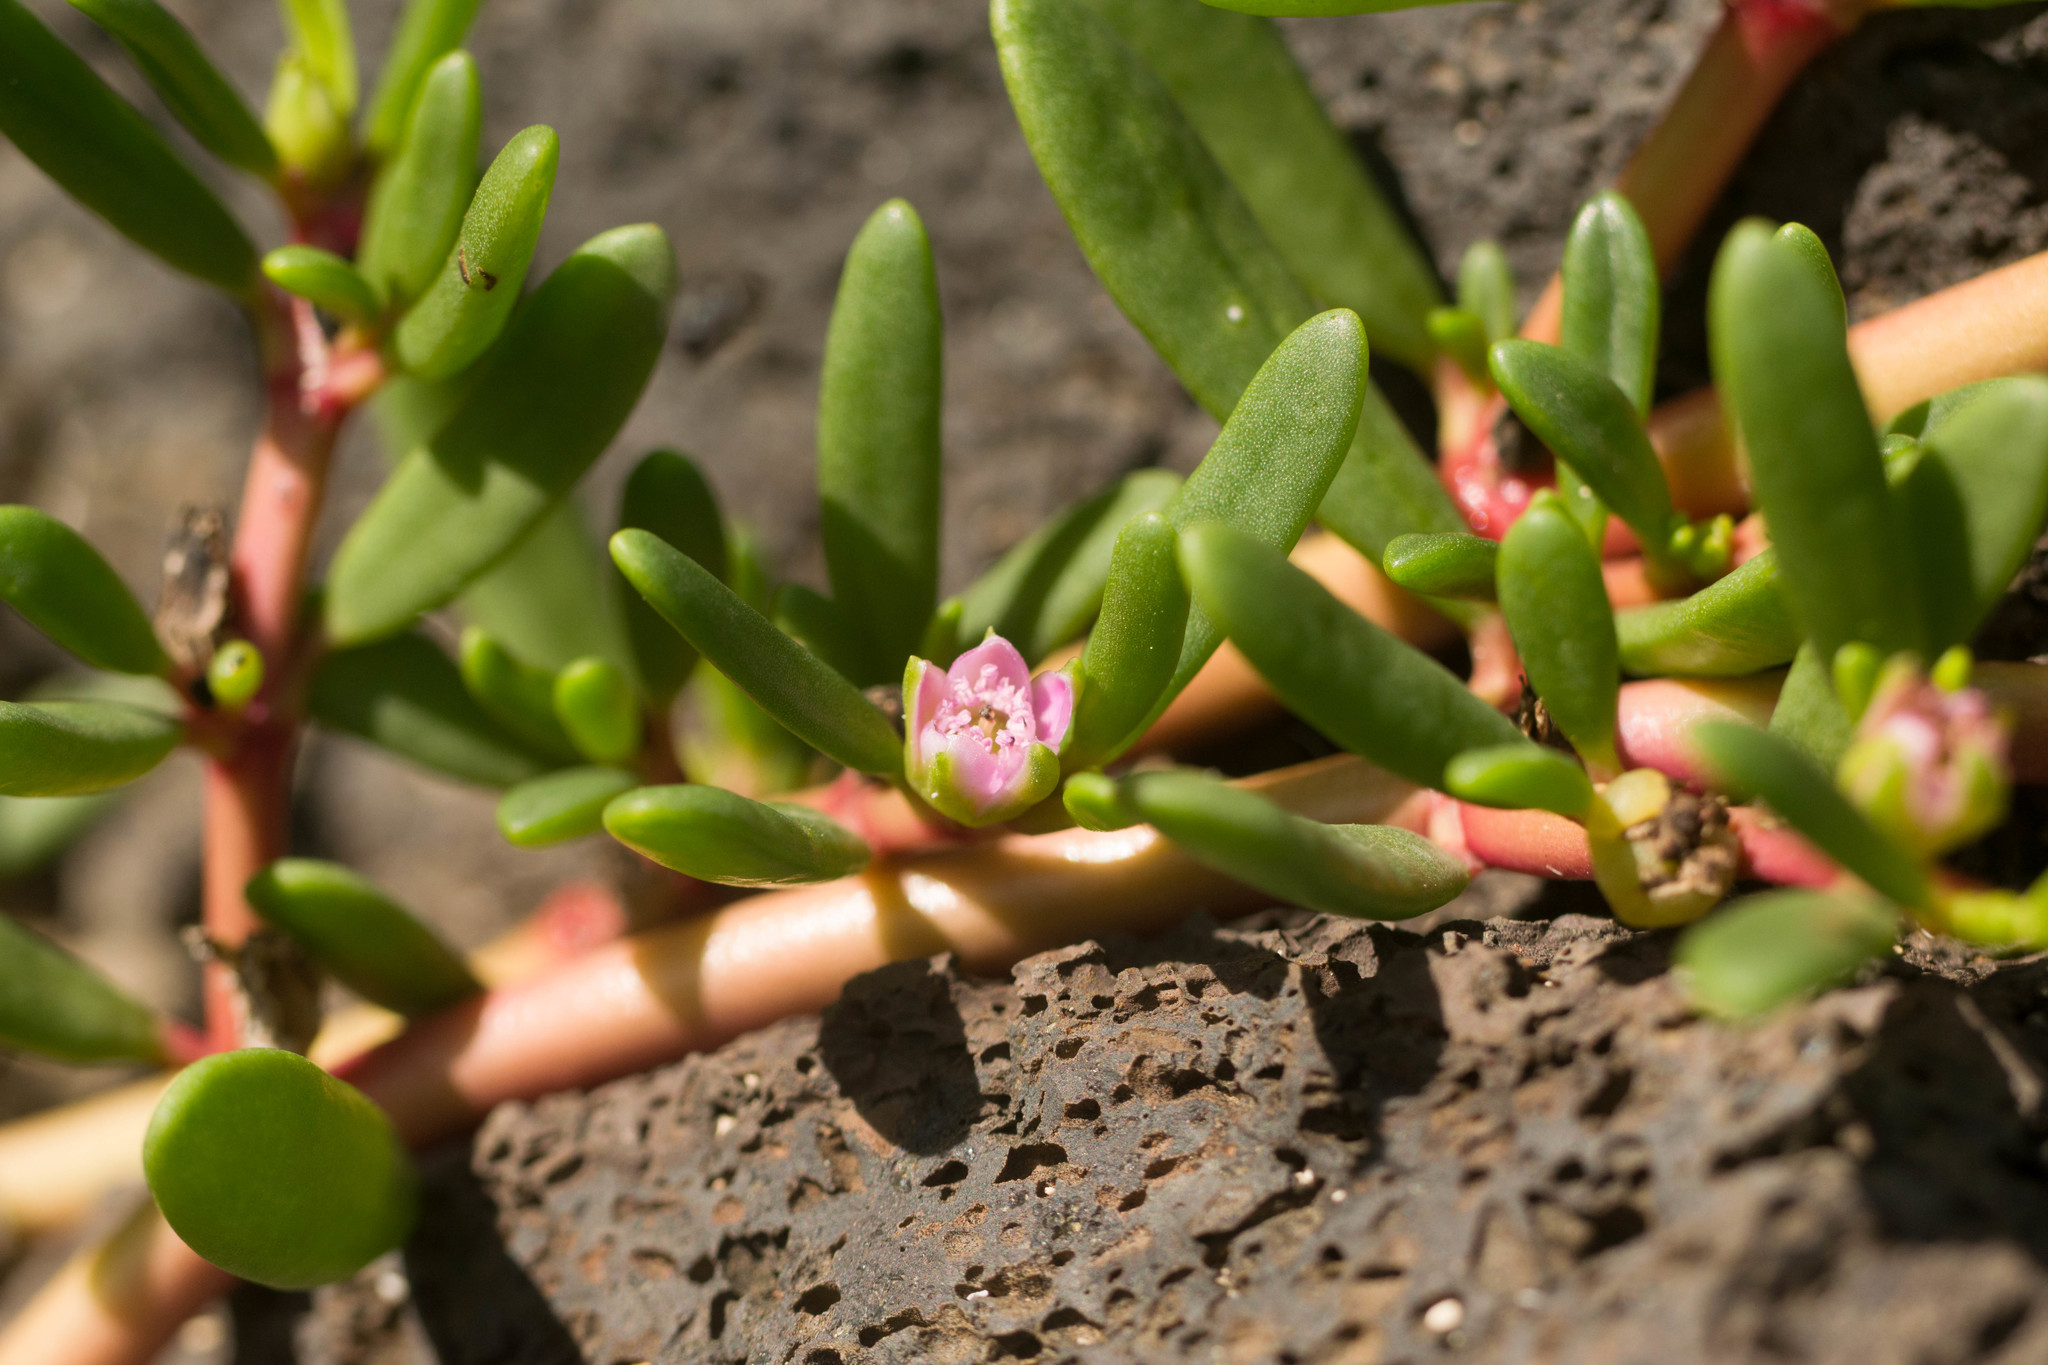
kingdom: Plantae
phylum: Tracheophyta
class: Magnoliopsida
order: Caryophyllales
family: Aizoaceae
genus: Sesuvium
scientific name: Sesuvium portulacastrum
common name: Sea-purslane
